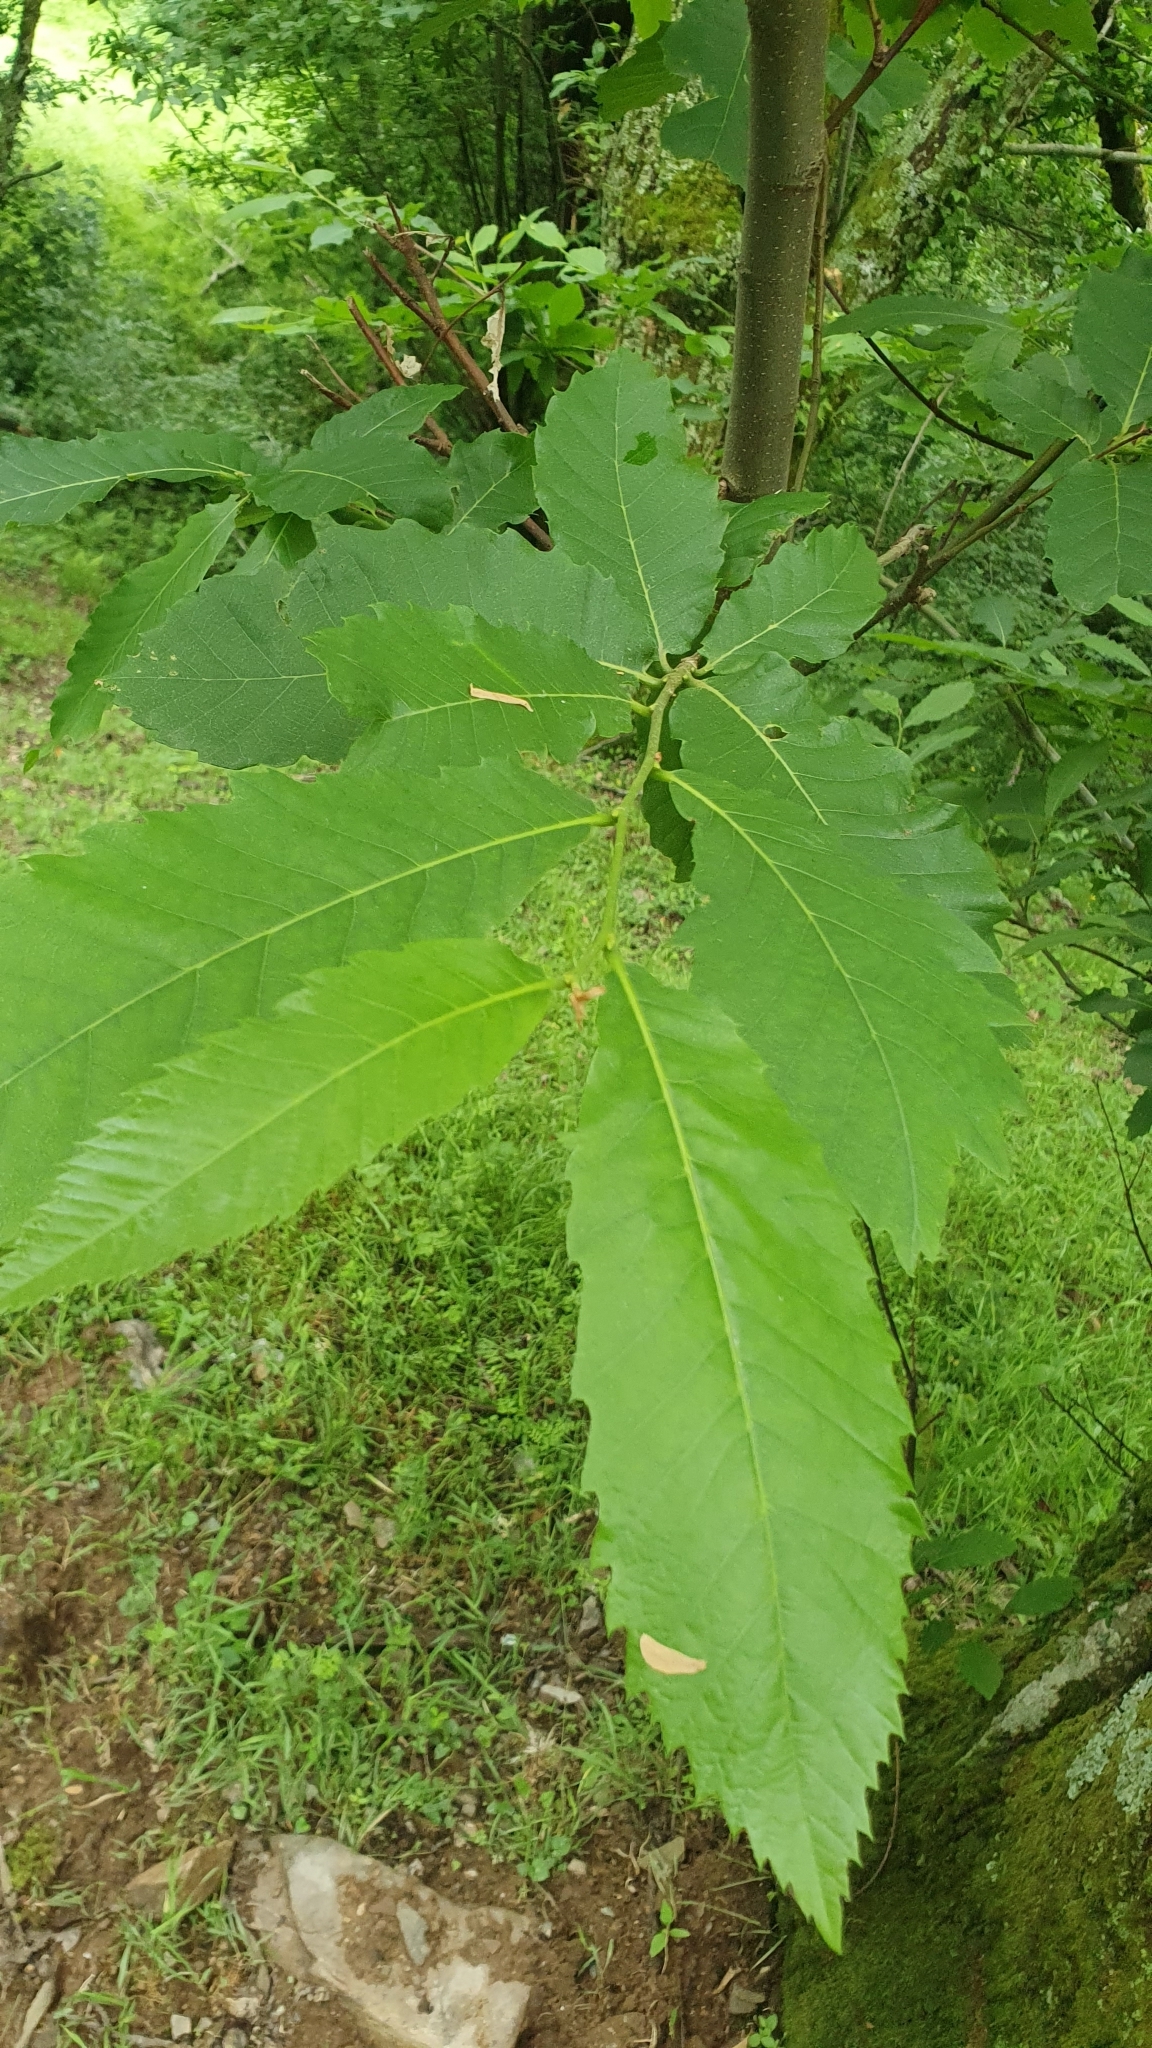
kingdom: Plantae
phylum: Tracheophyta
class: Magnoliopsida
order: Fagales
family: Fagaceae
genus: Castanea
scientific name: Castanea sativa
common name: Sweet chestnut
